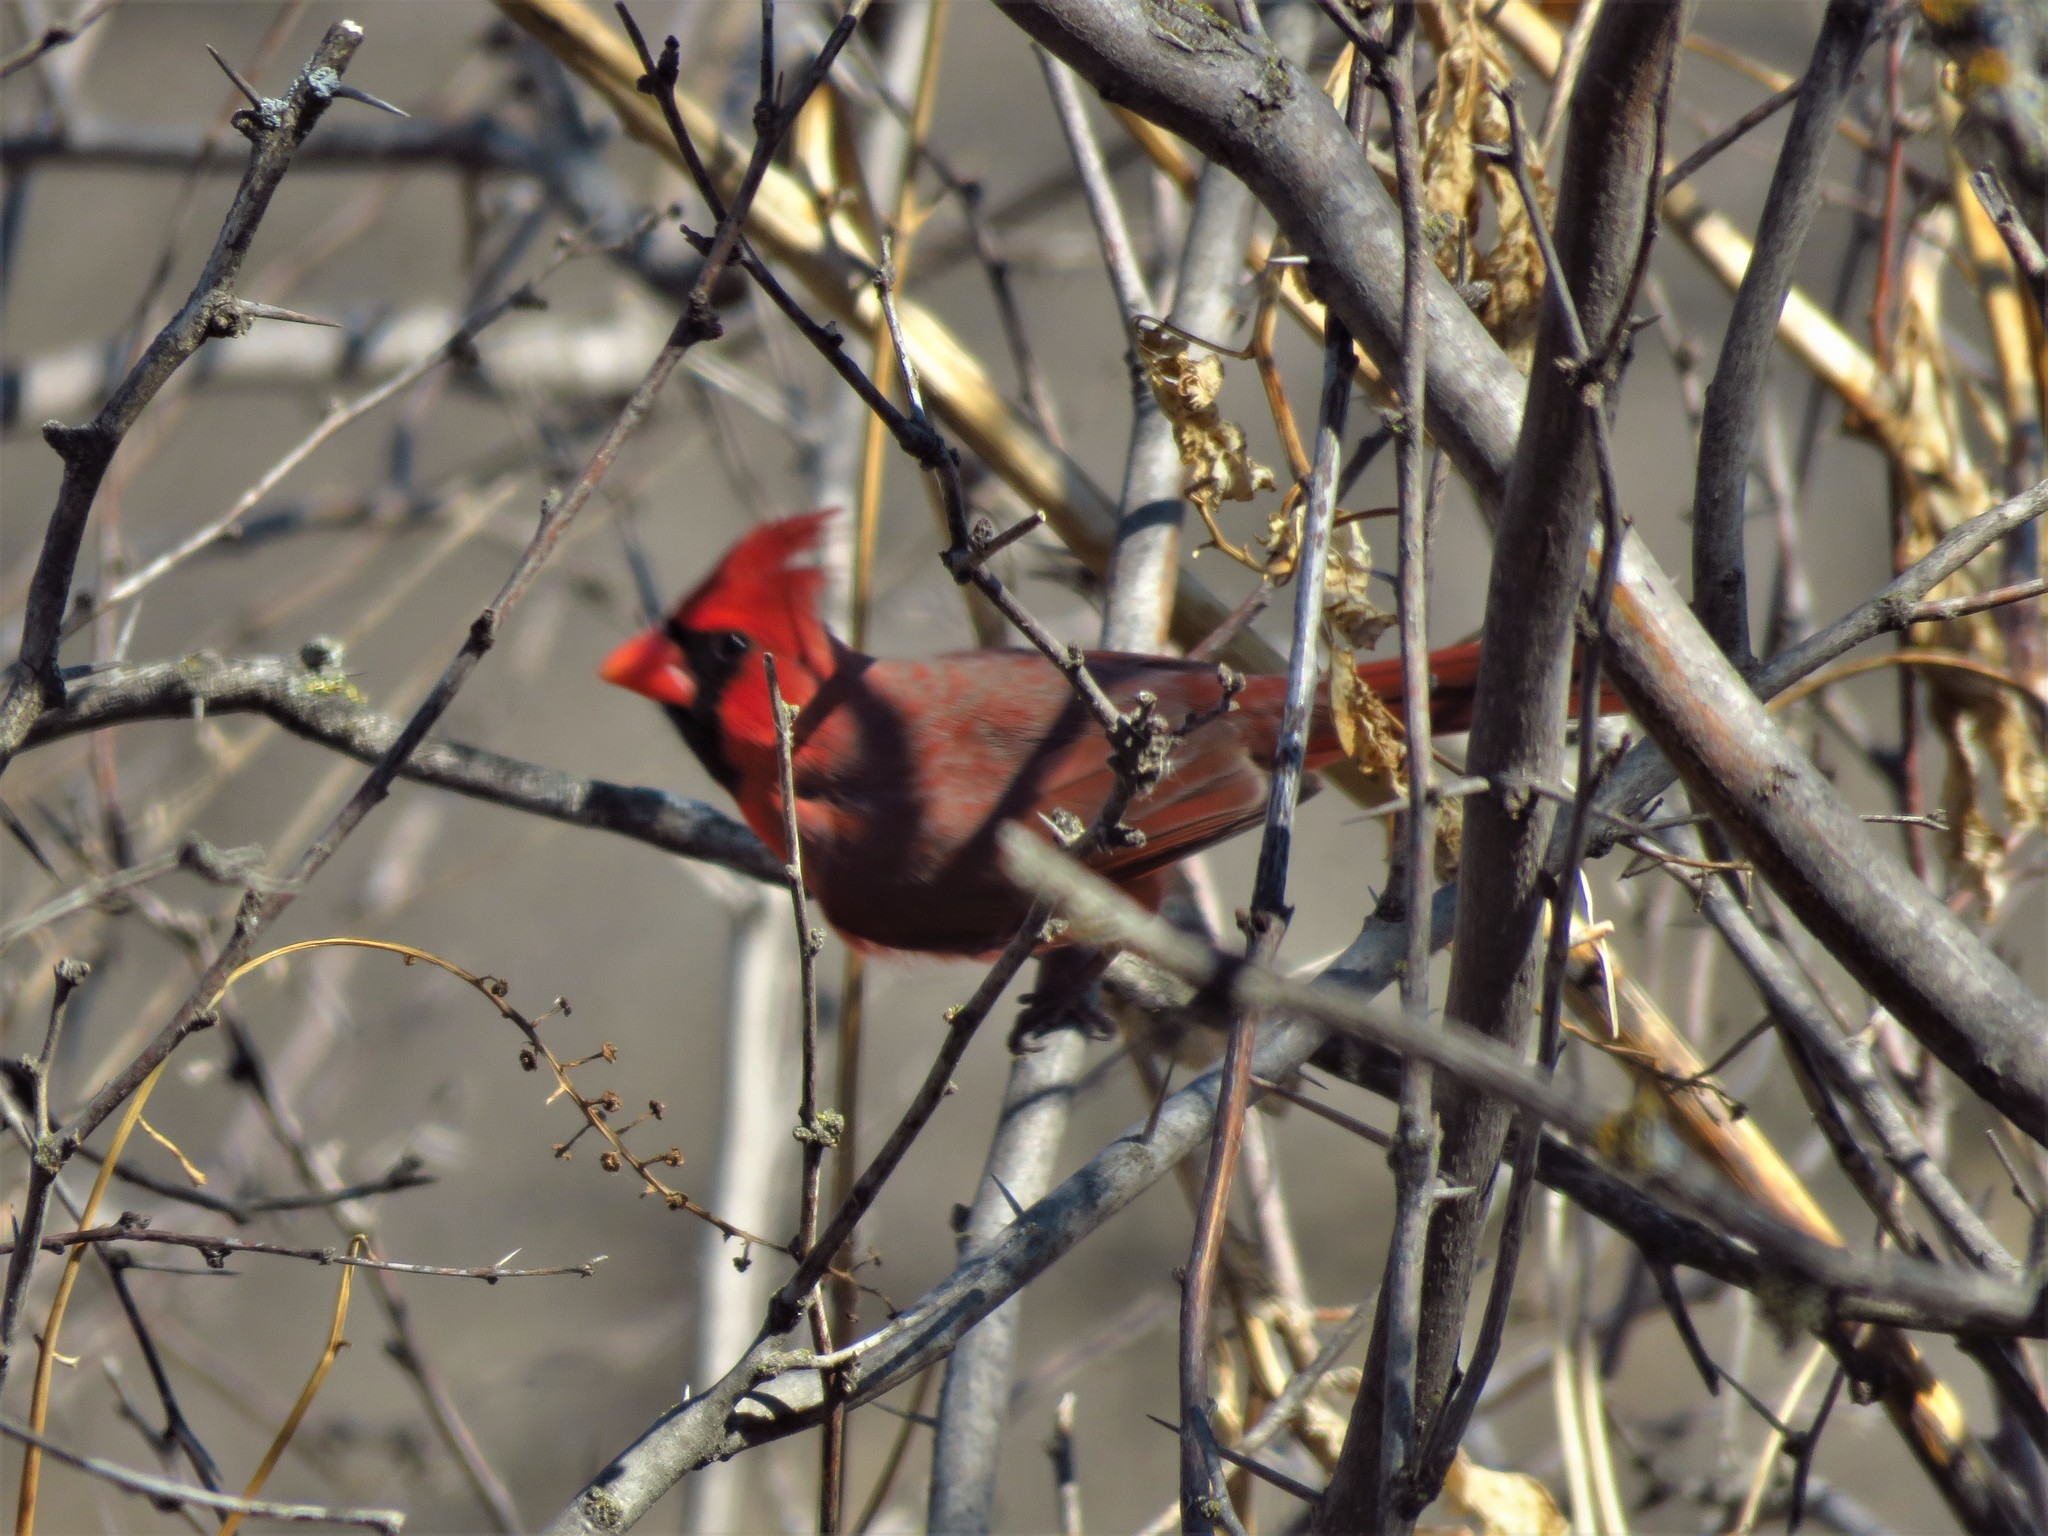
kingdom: Animalia
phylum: Chordata
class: Aves
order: Passeriformes
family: Cardinalidae
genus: Cardinalis
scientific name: Cardinalis cardinalis
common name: Northern cardinal
